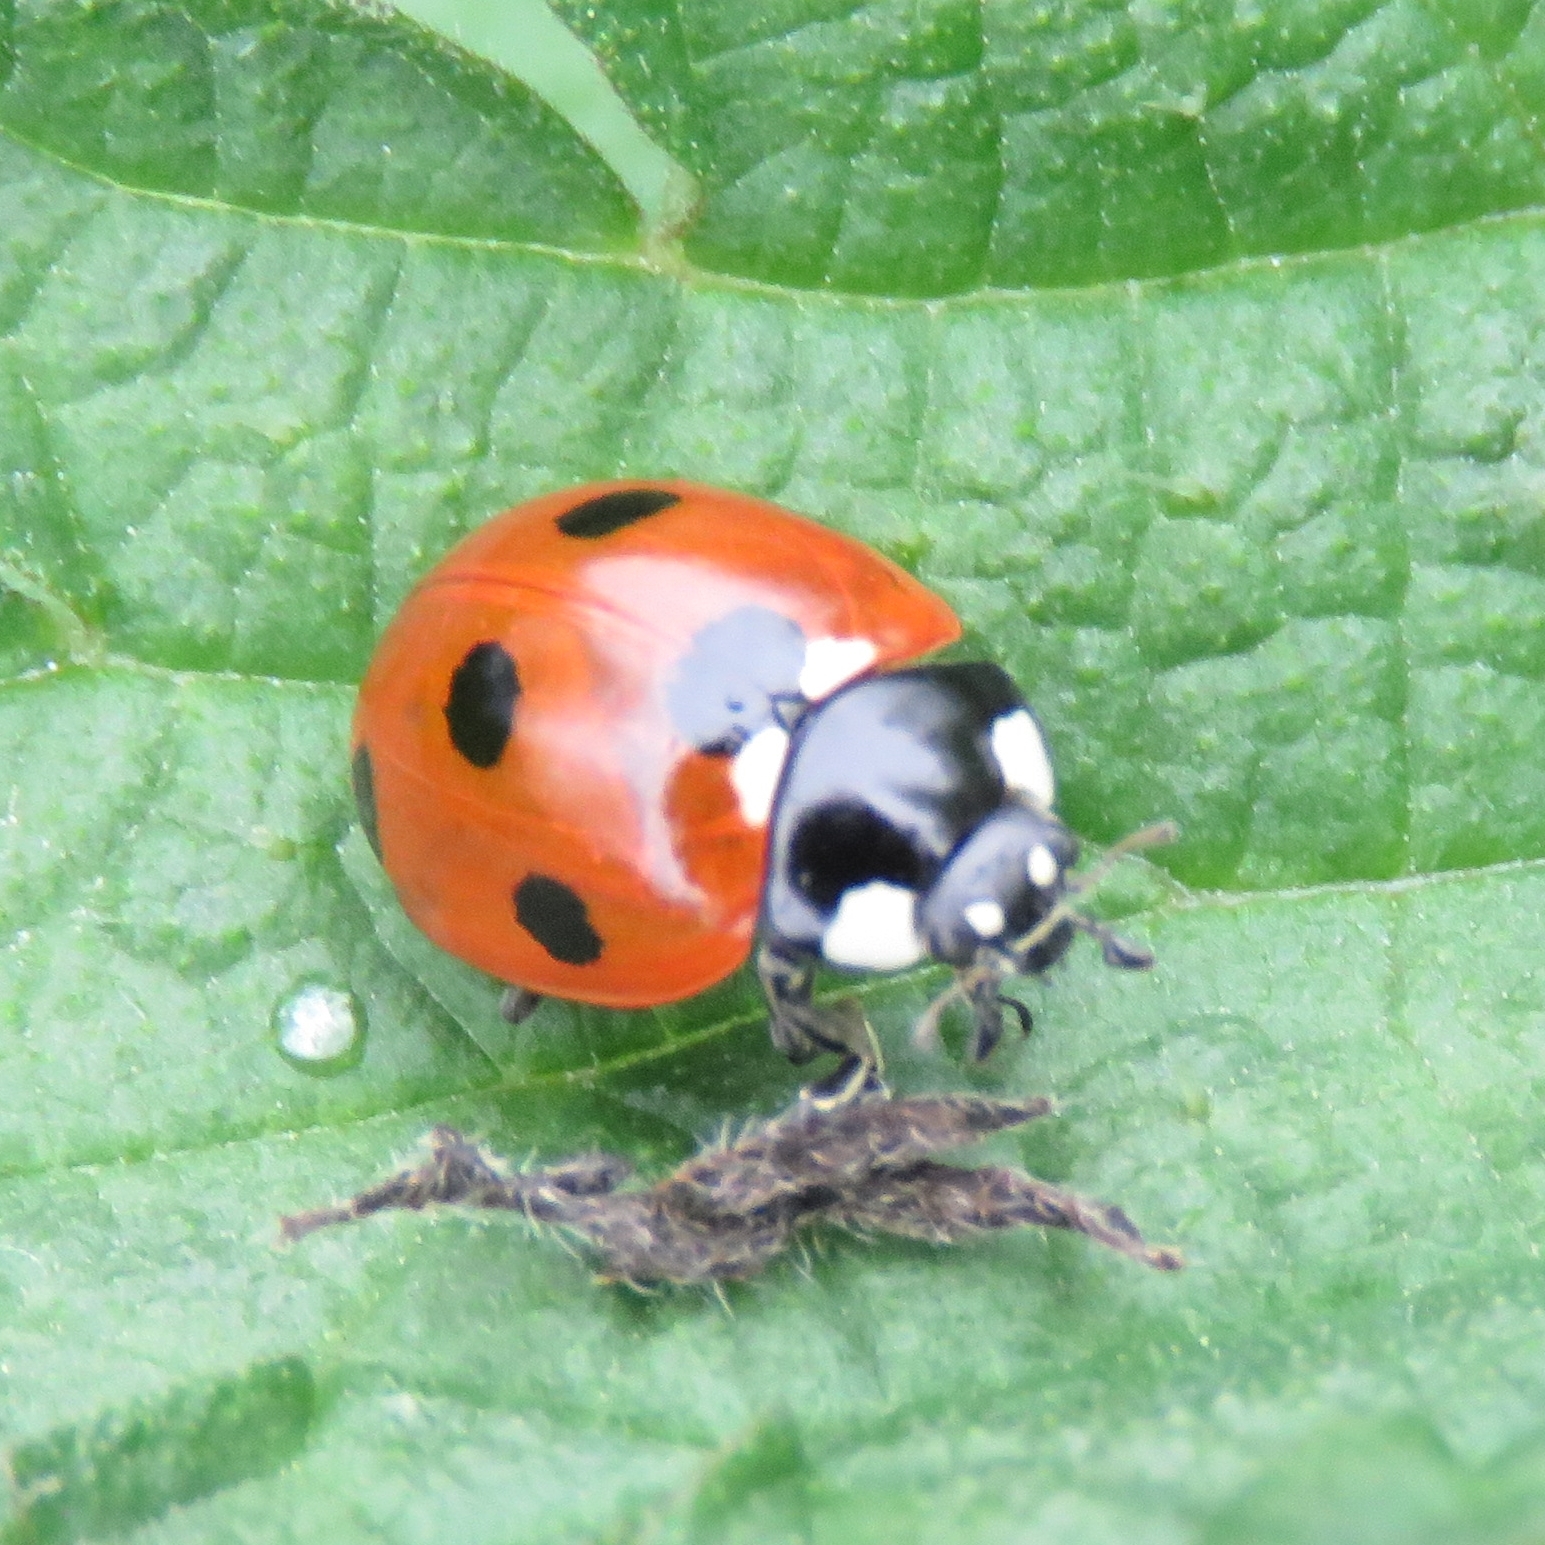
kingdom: Animalia
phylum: Arthropoda
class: Insecta
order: Coleoptera
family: Coccinellidae
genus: Coccinella
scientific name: Coccinella septempunctata
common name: Sevenspotted lady beetle
